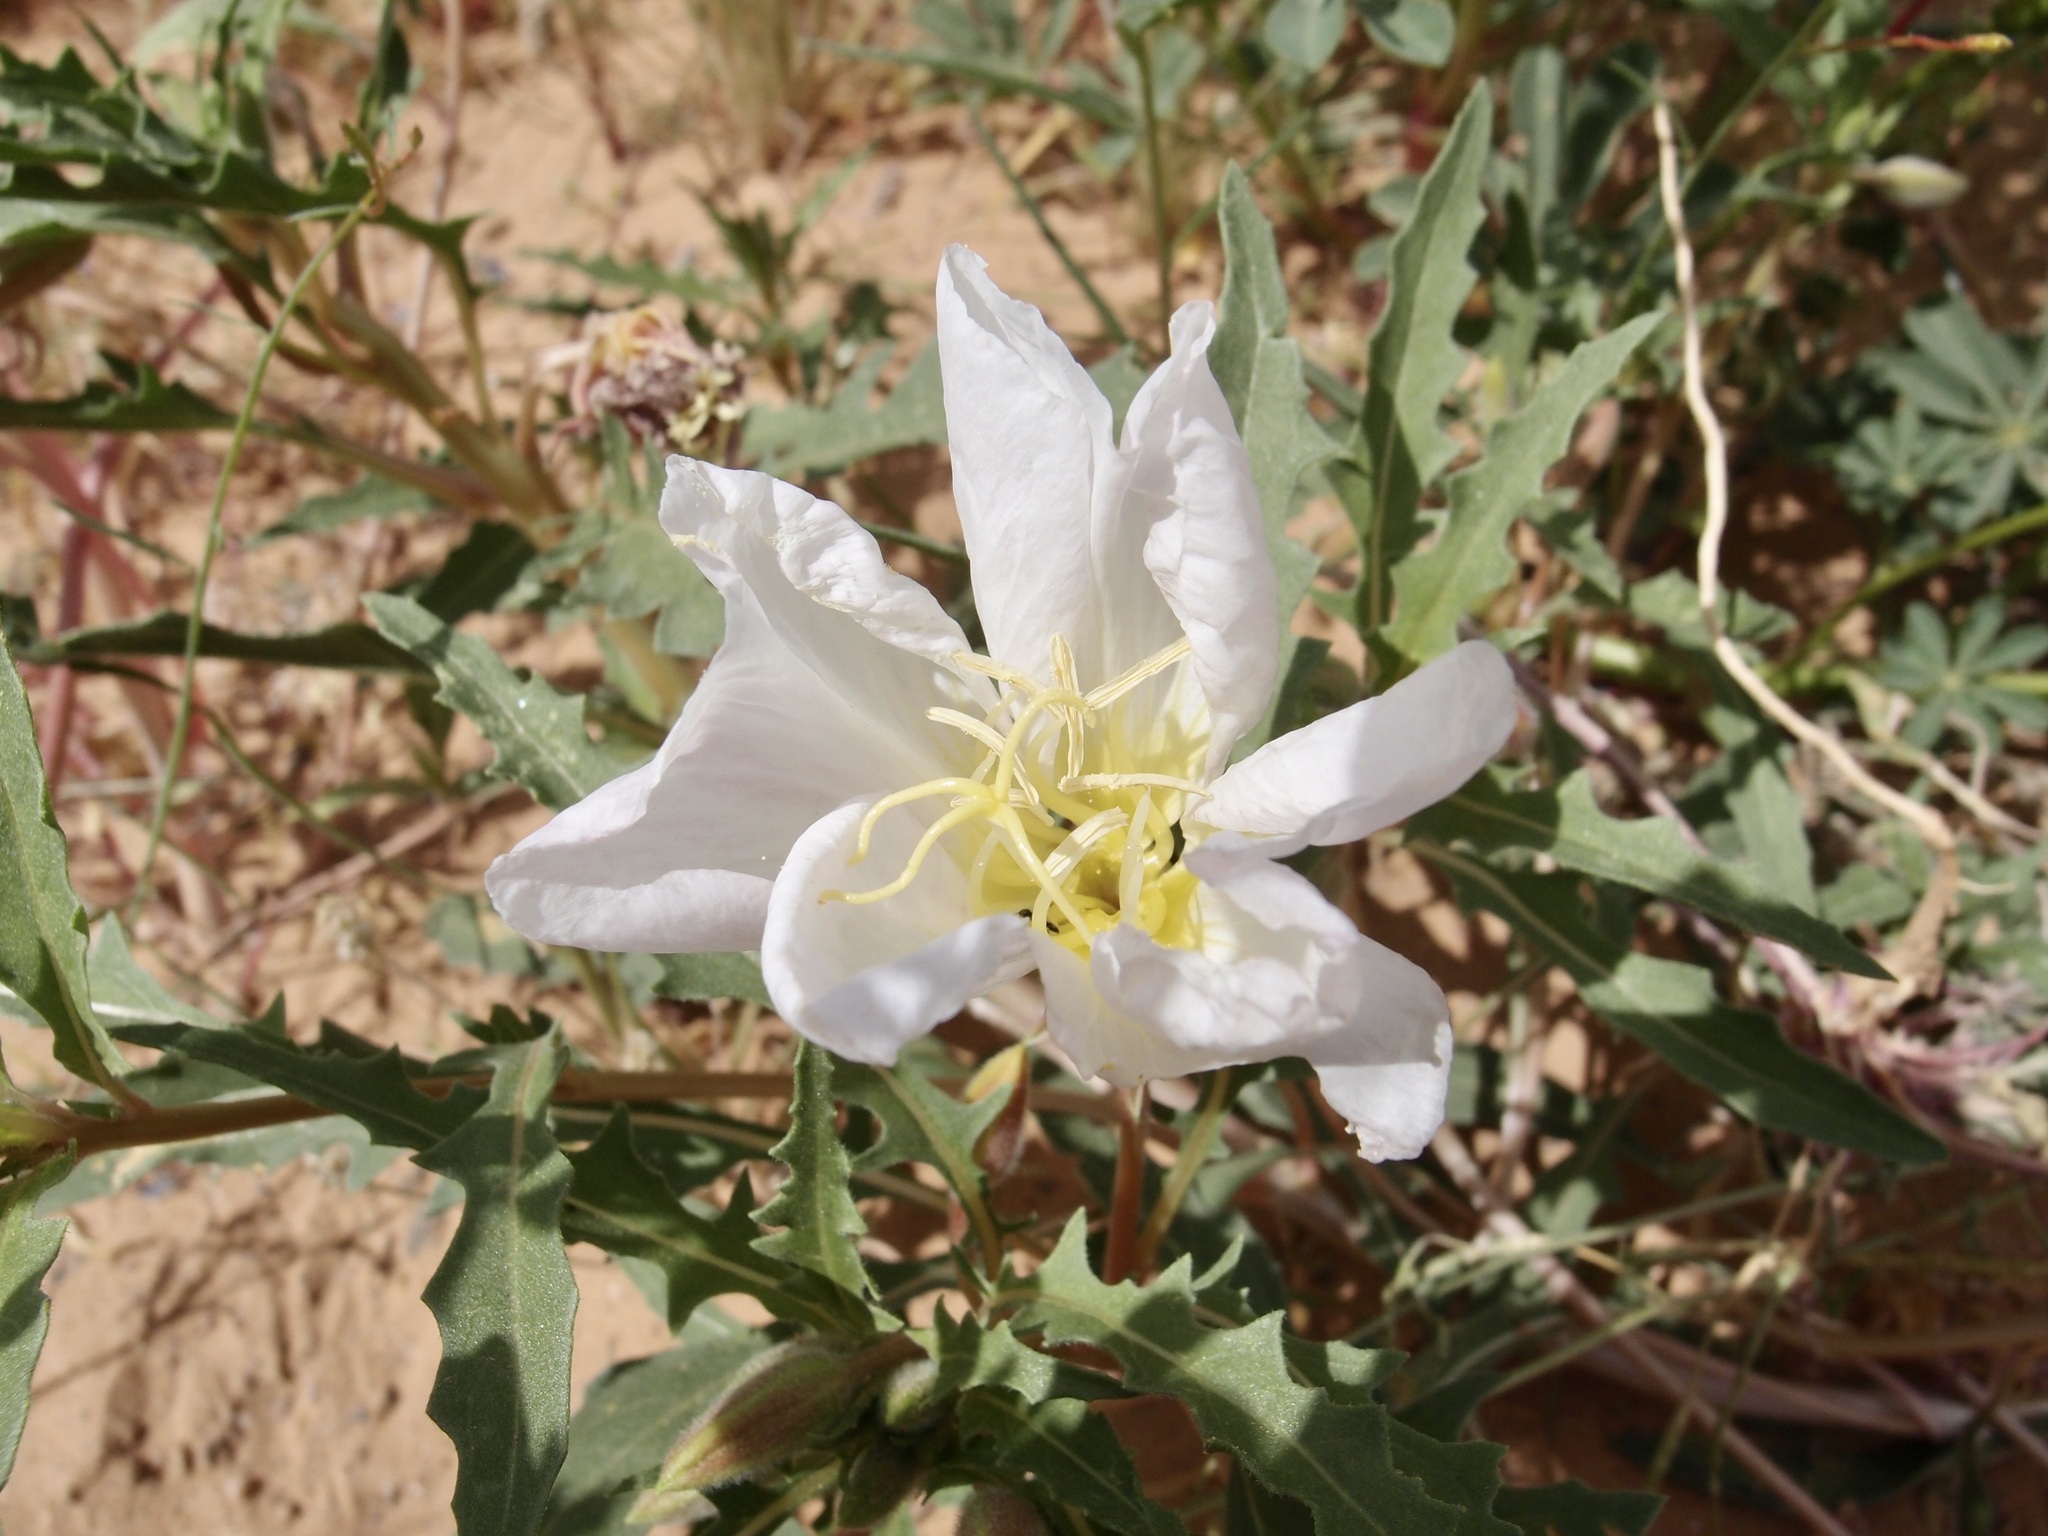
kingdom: Plantae
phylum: Tracheophyta
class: Magnoliopsida
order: Myrtales
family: Onagraceae
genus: Oenothera
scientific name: Oenothera deltoides
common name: Basket evening-primrose
